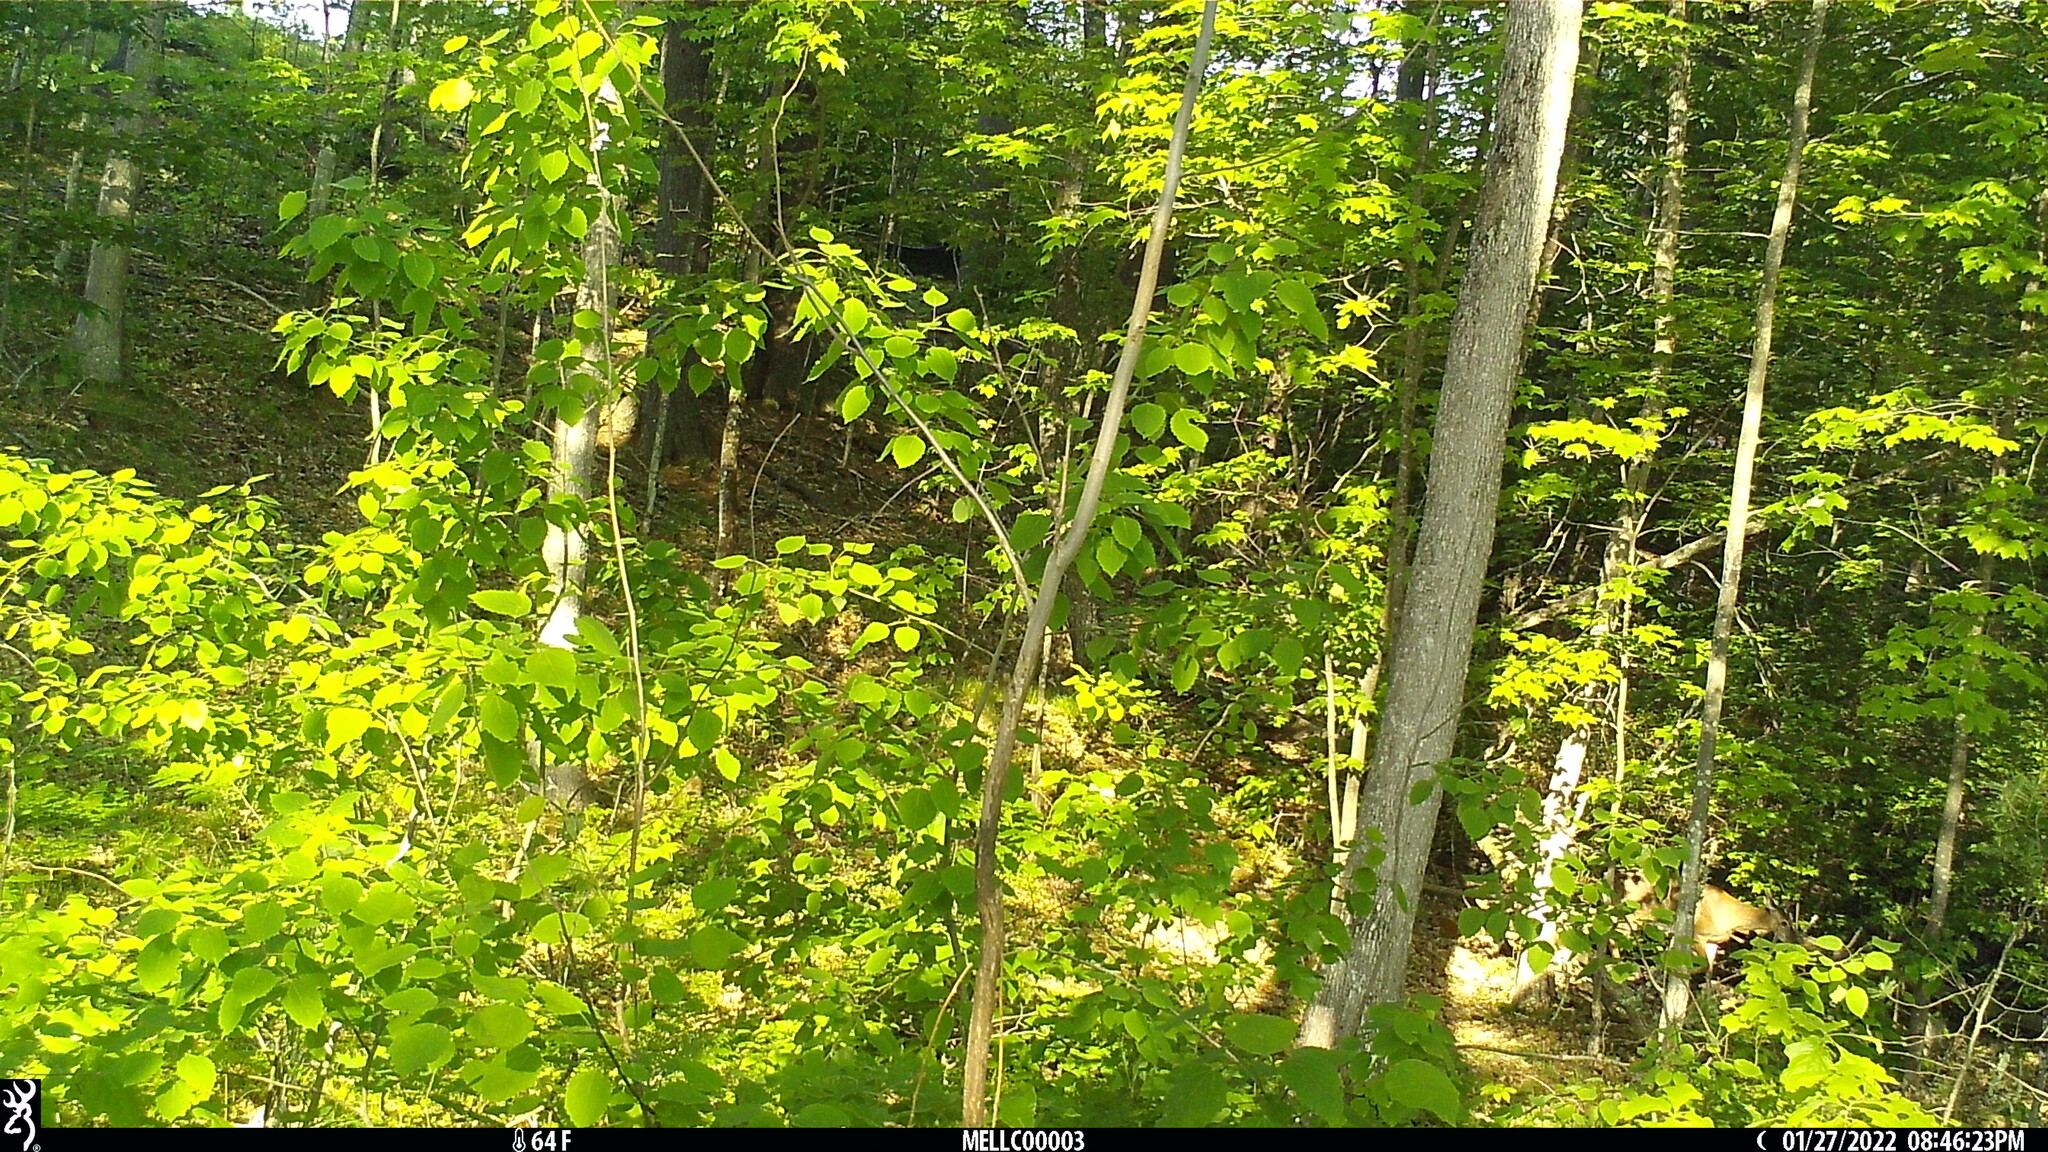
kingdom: Animalia
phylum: Chordata
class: Mammalia
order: Artiodactyla
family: Cervidae
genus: Odocoileus
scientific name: Odocoileus virginianus
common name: White-tailed deer
